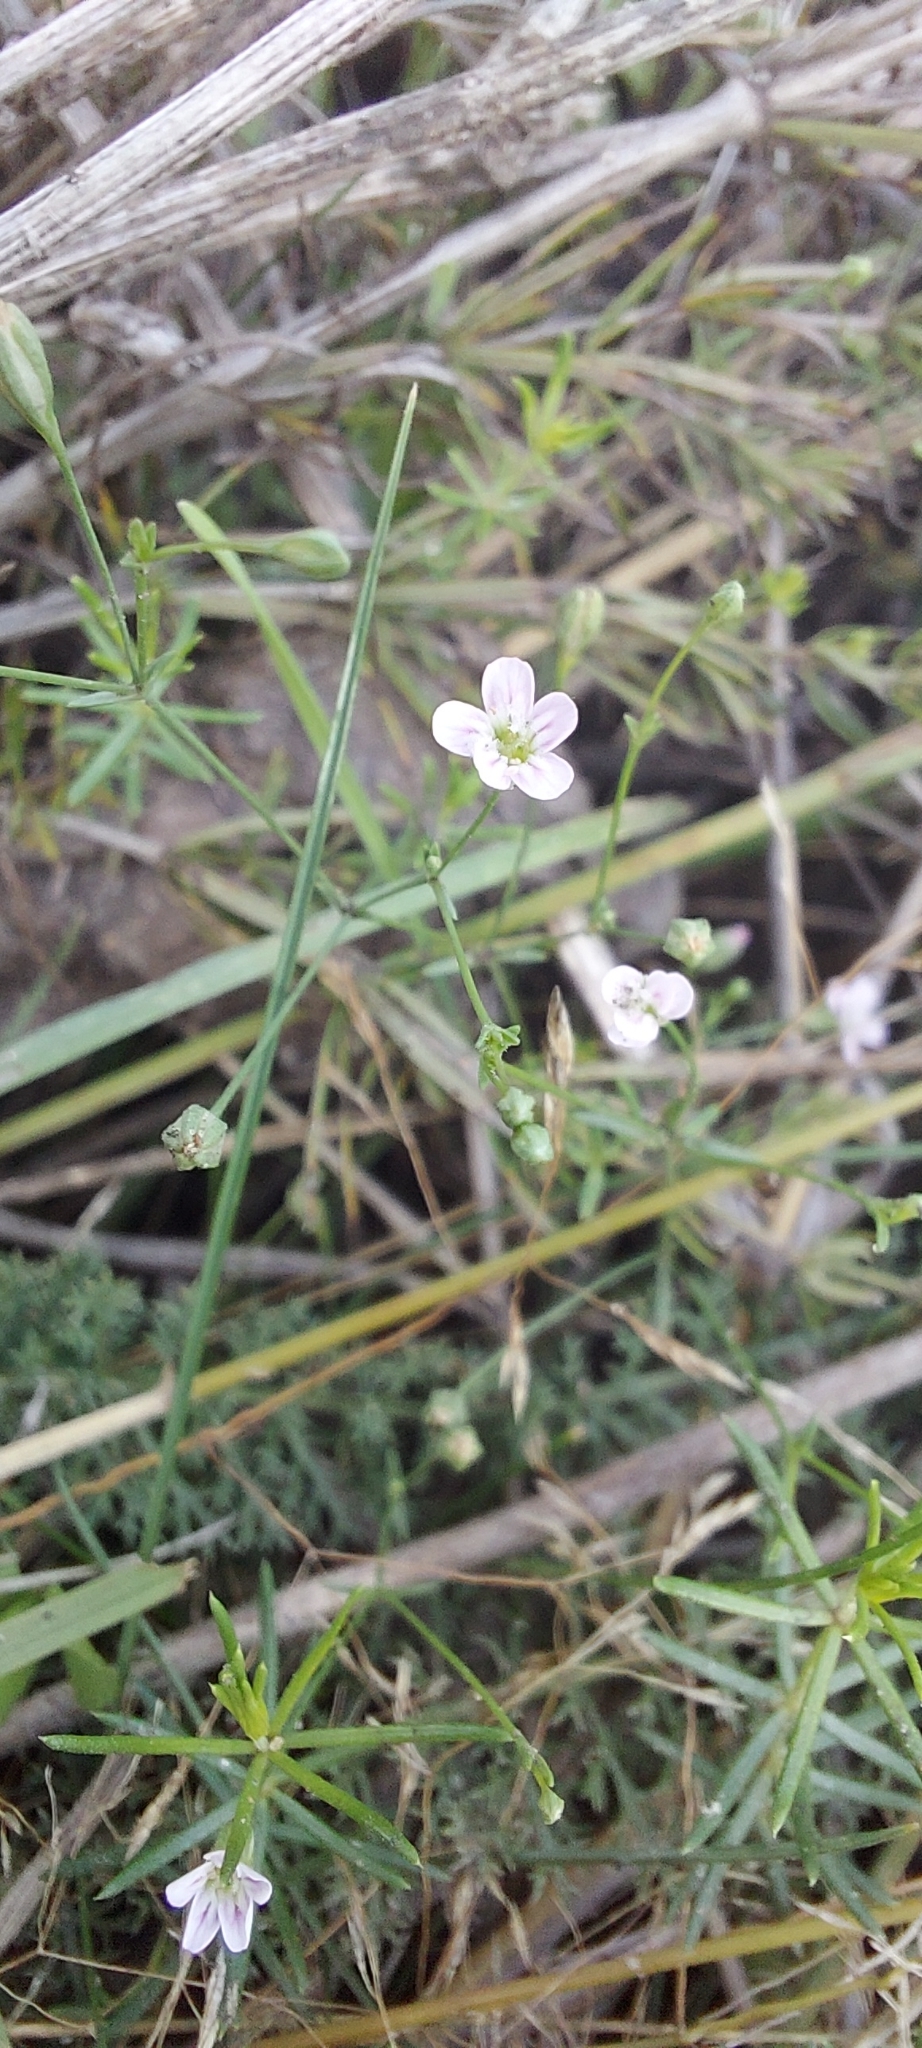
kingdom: Plantae
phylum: Tracheophyta
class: Magnoliopsida
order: Caryophyllales
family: Caryophyllaceae
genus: Psammophiliella
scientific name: Psammophiliella muralis
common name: Cushion baby's-breath
